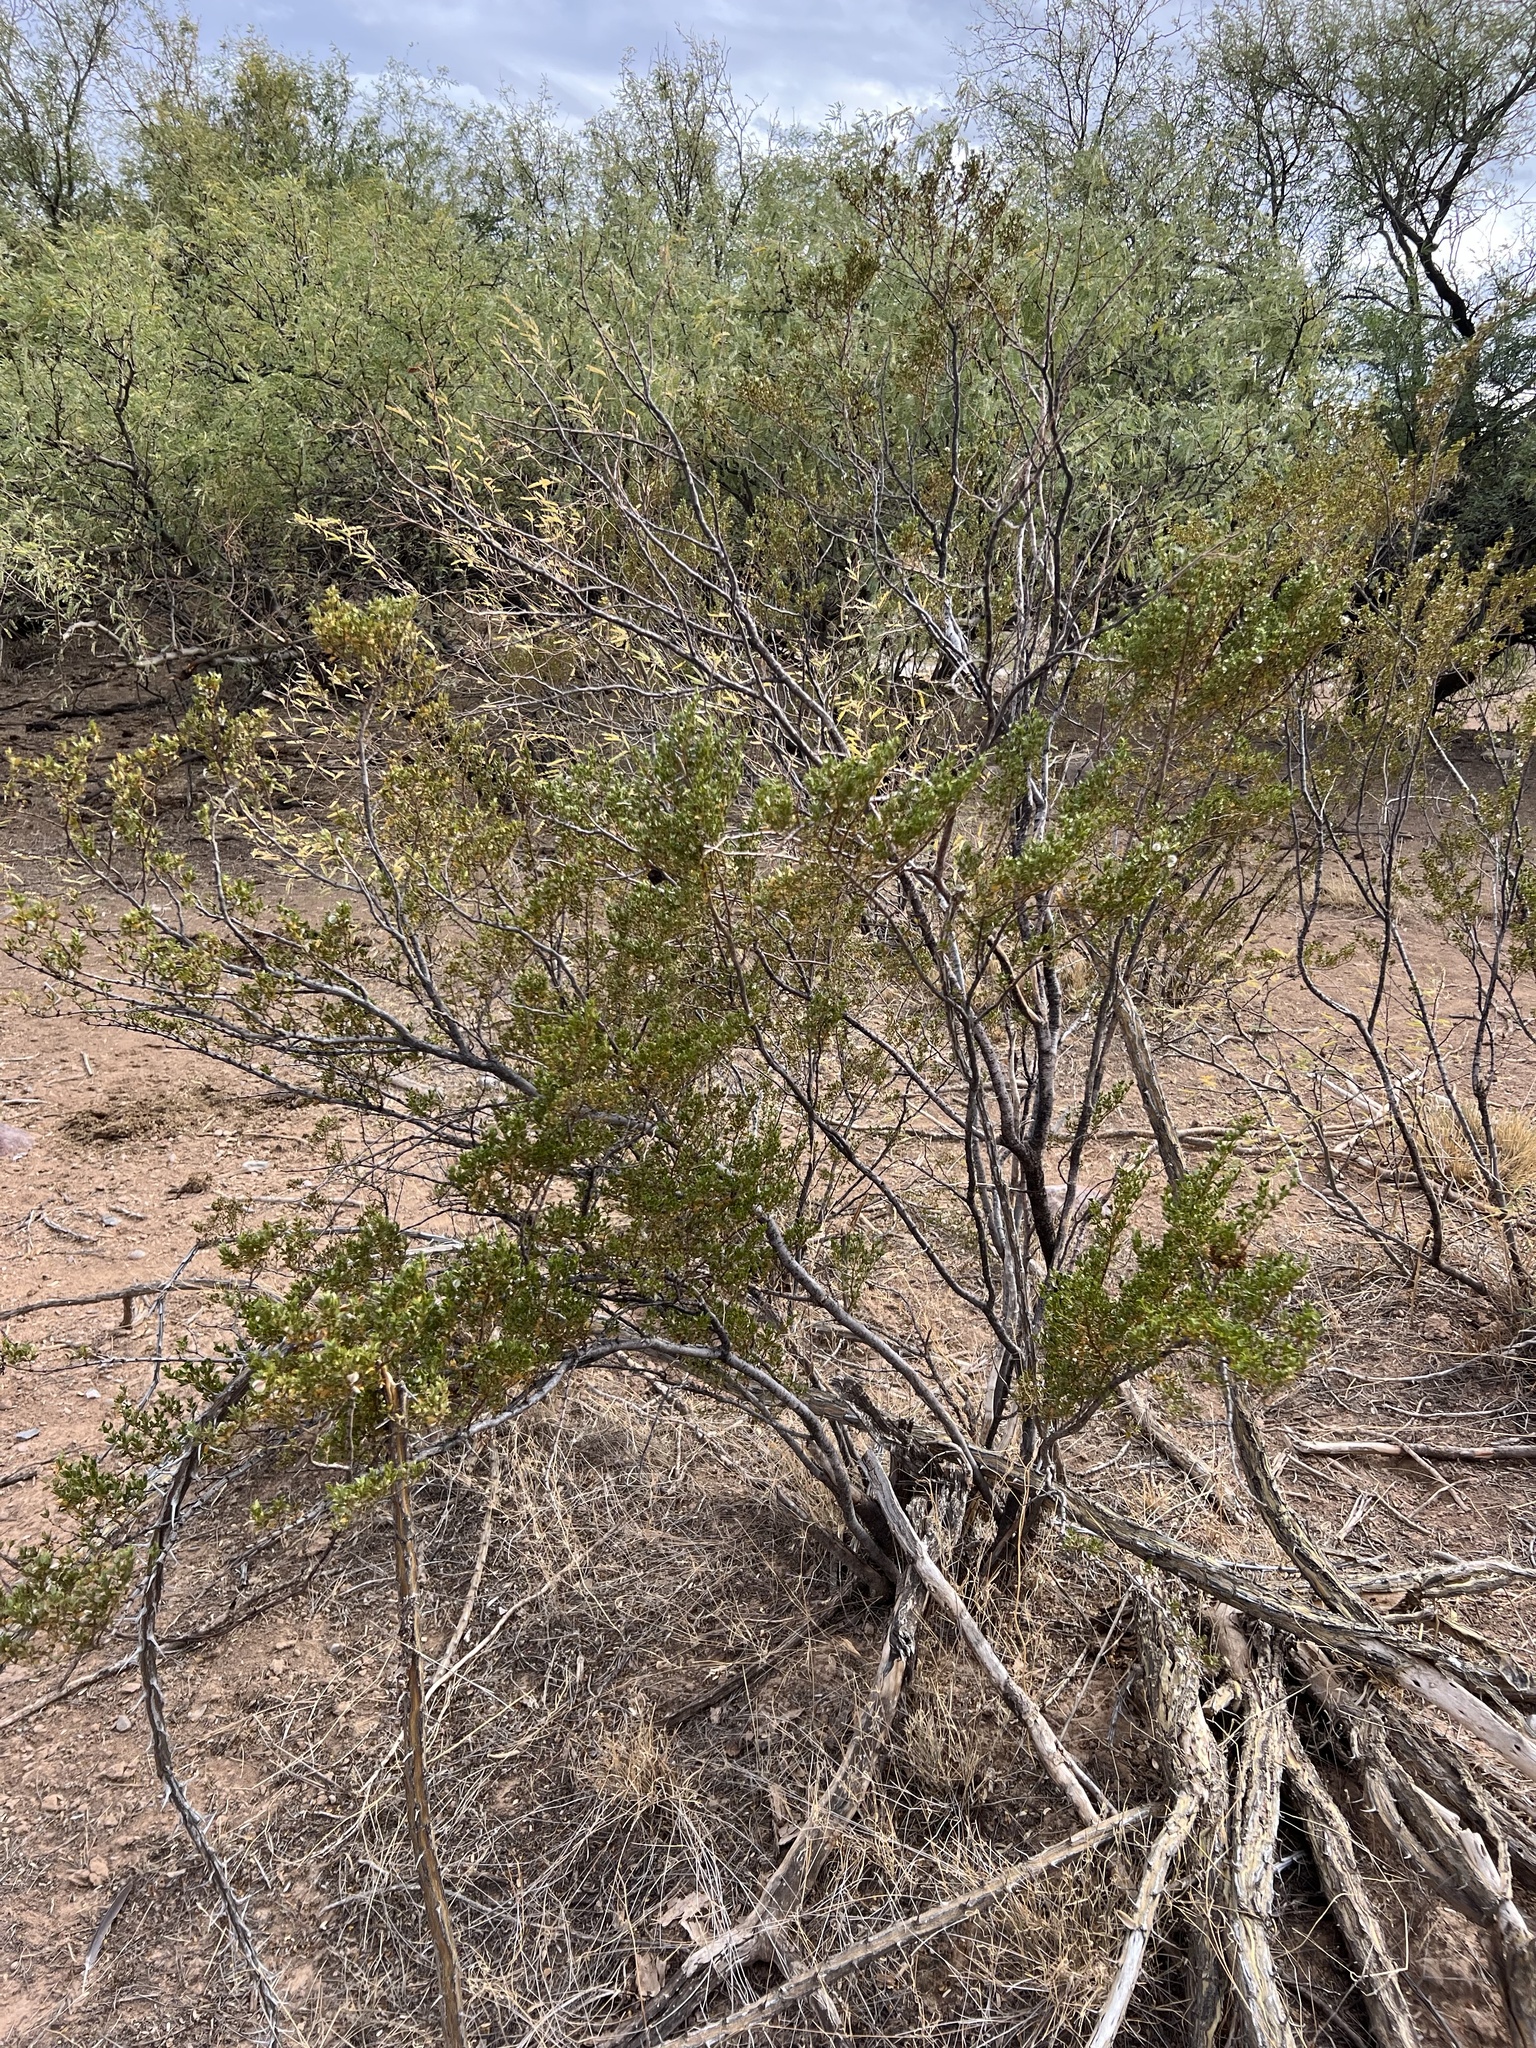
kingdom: Plantae
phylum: Tracheophyta
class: Magnoliopsida
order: Zygophyllales
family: Zygophyllaceae
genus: Larrea
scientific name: Larrea tridentata
